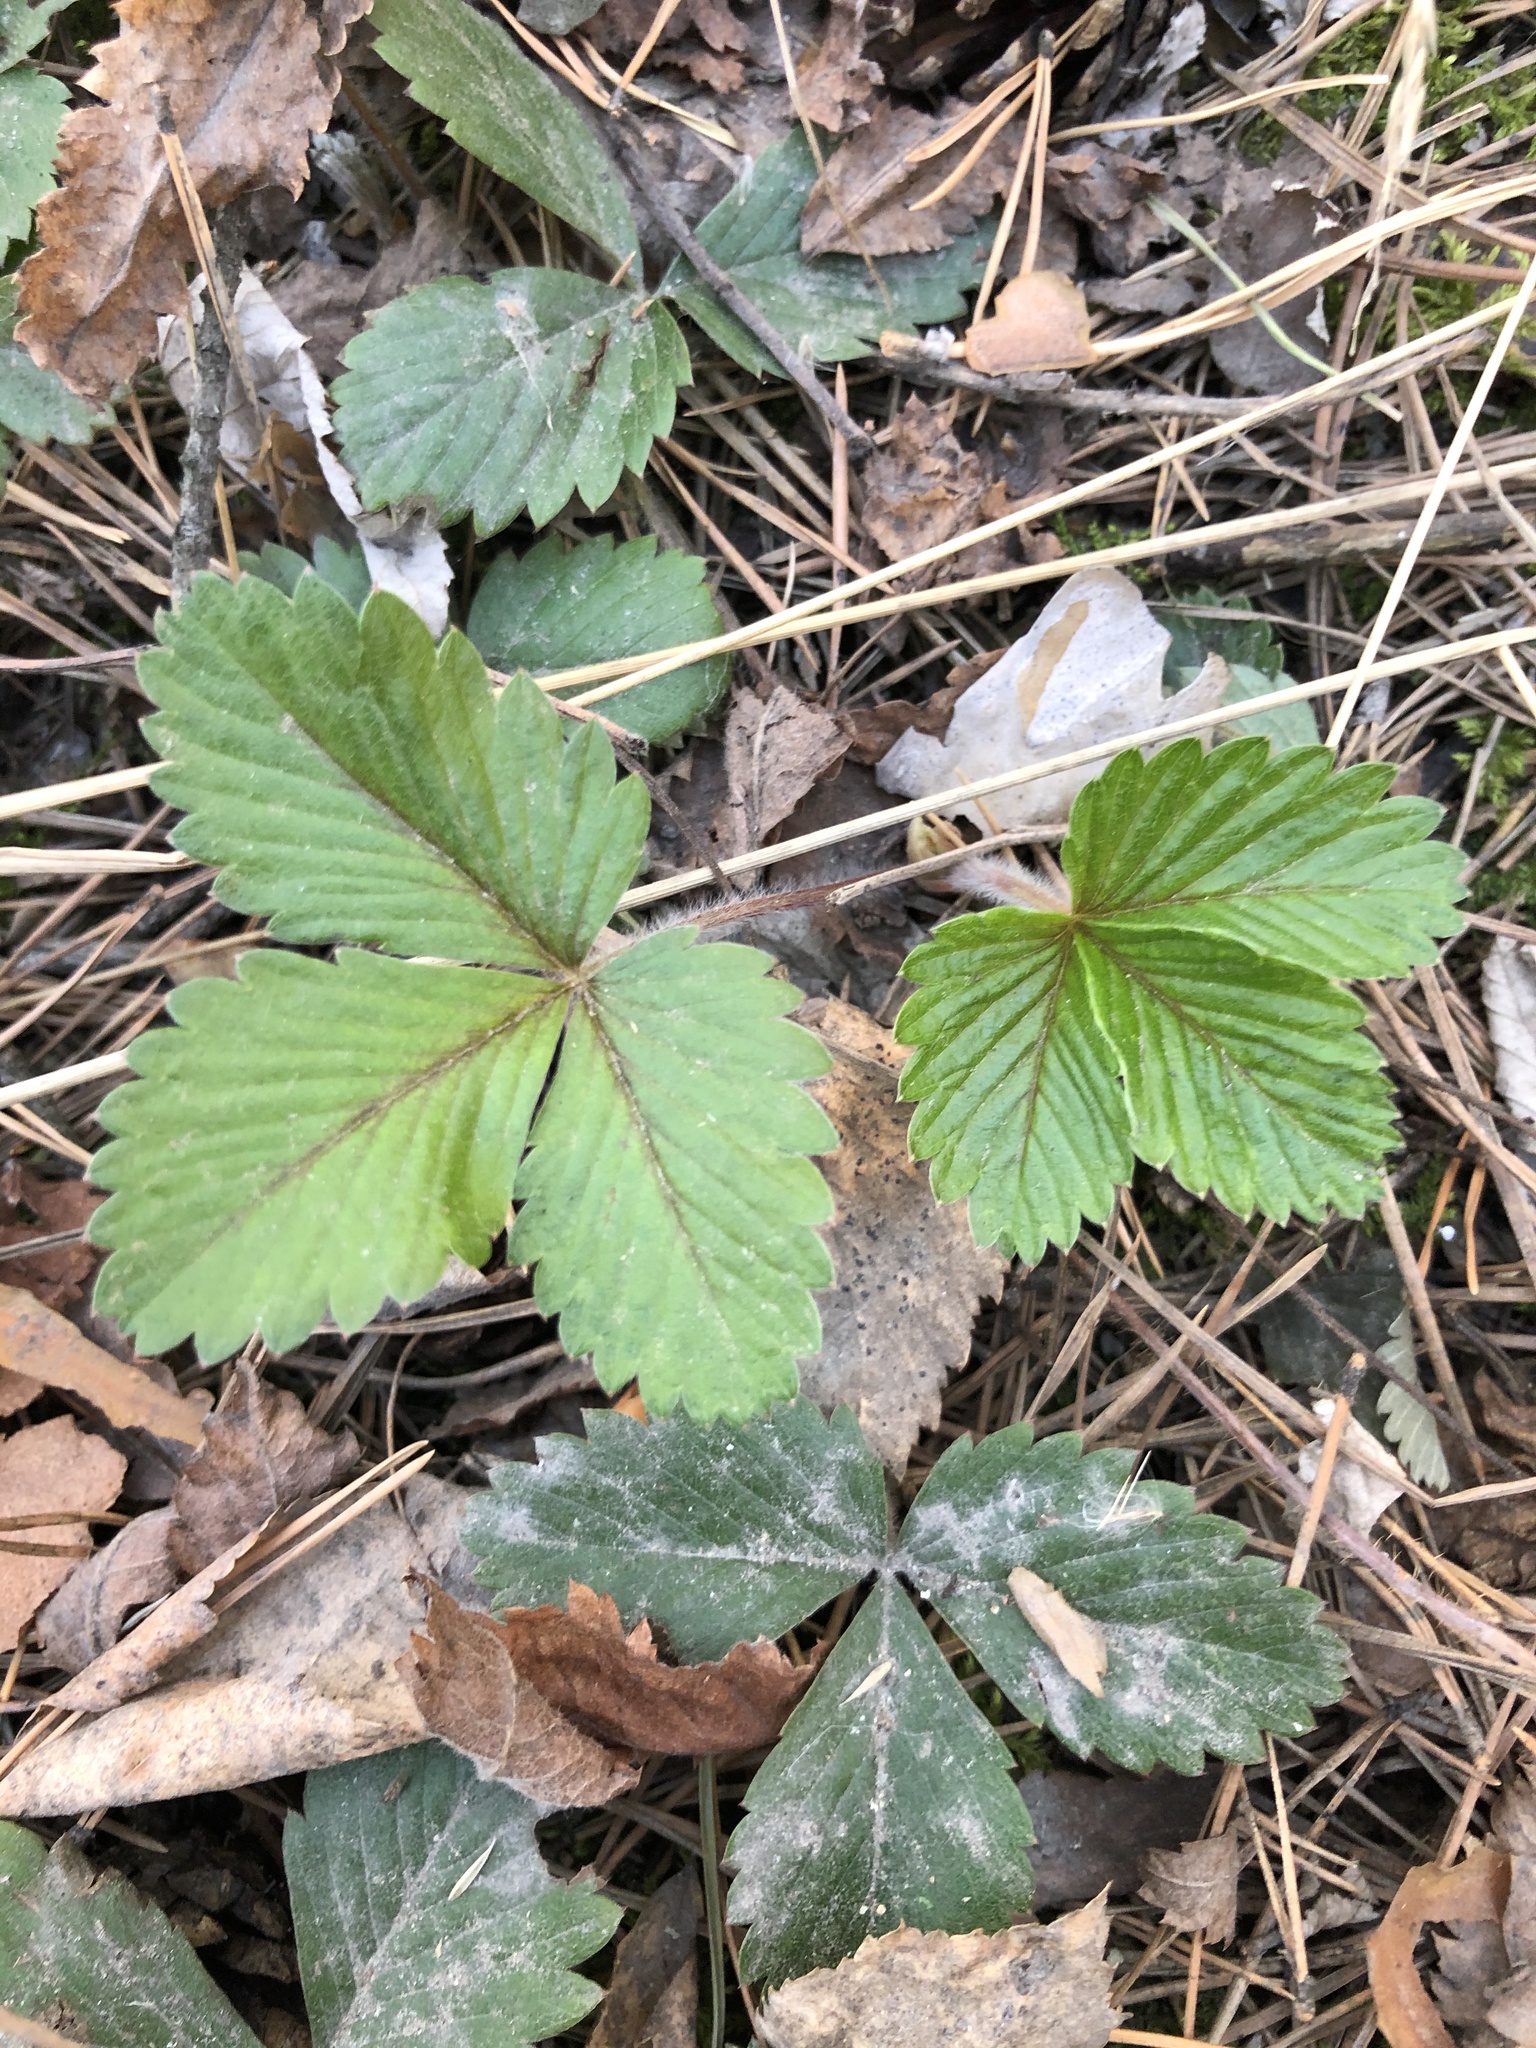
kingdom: Plantae
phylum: Tracheophyta
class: Magnoliopsida
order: Rosales
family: Rosaceae
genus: Fragaria
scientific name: Fragaria vesca
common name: Wild strawberry
